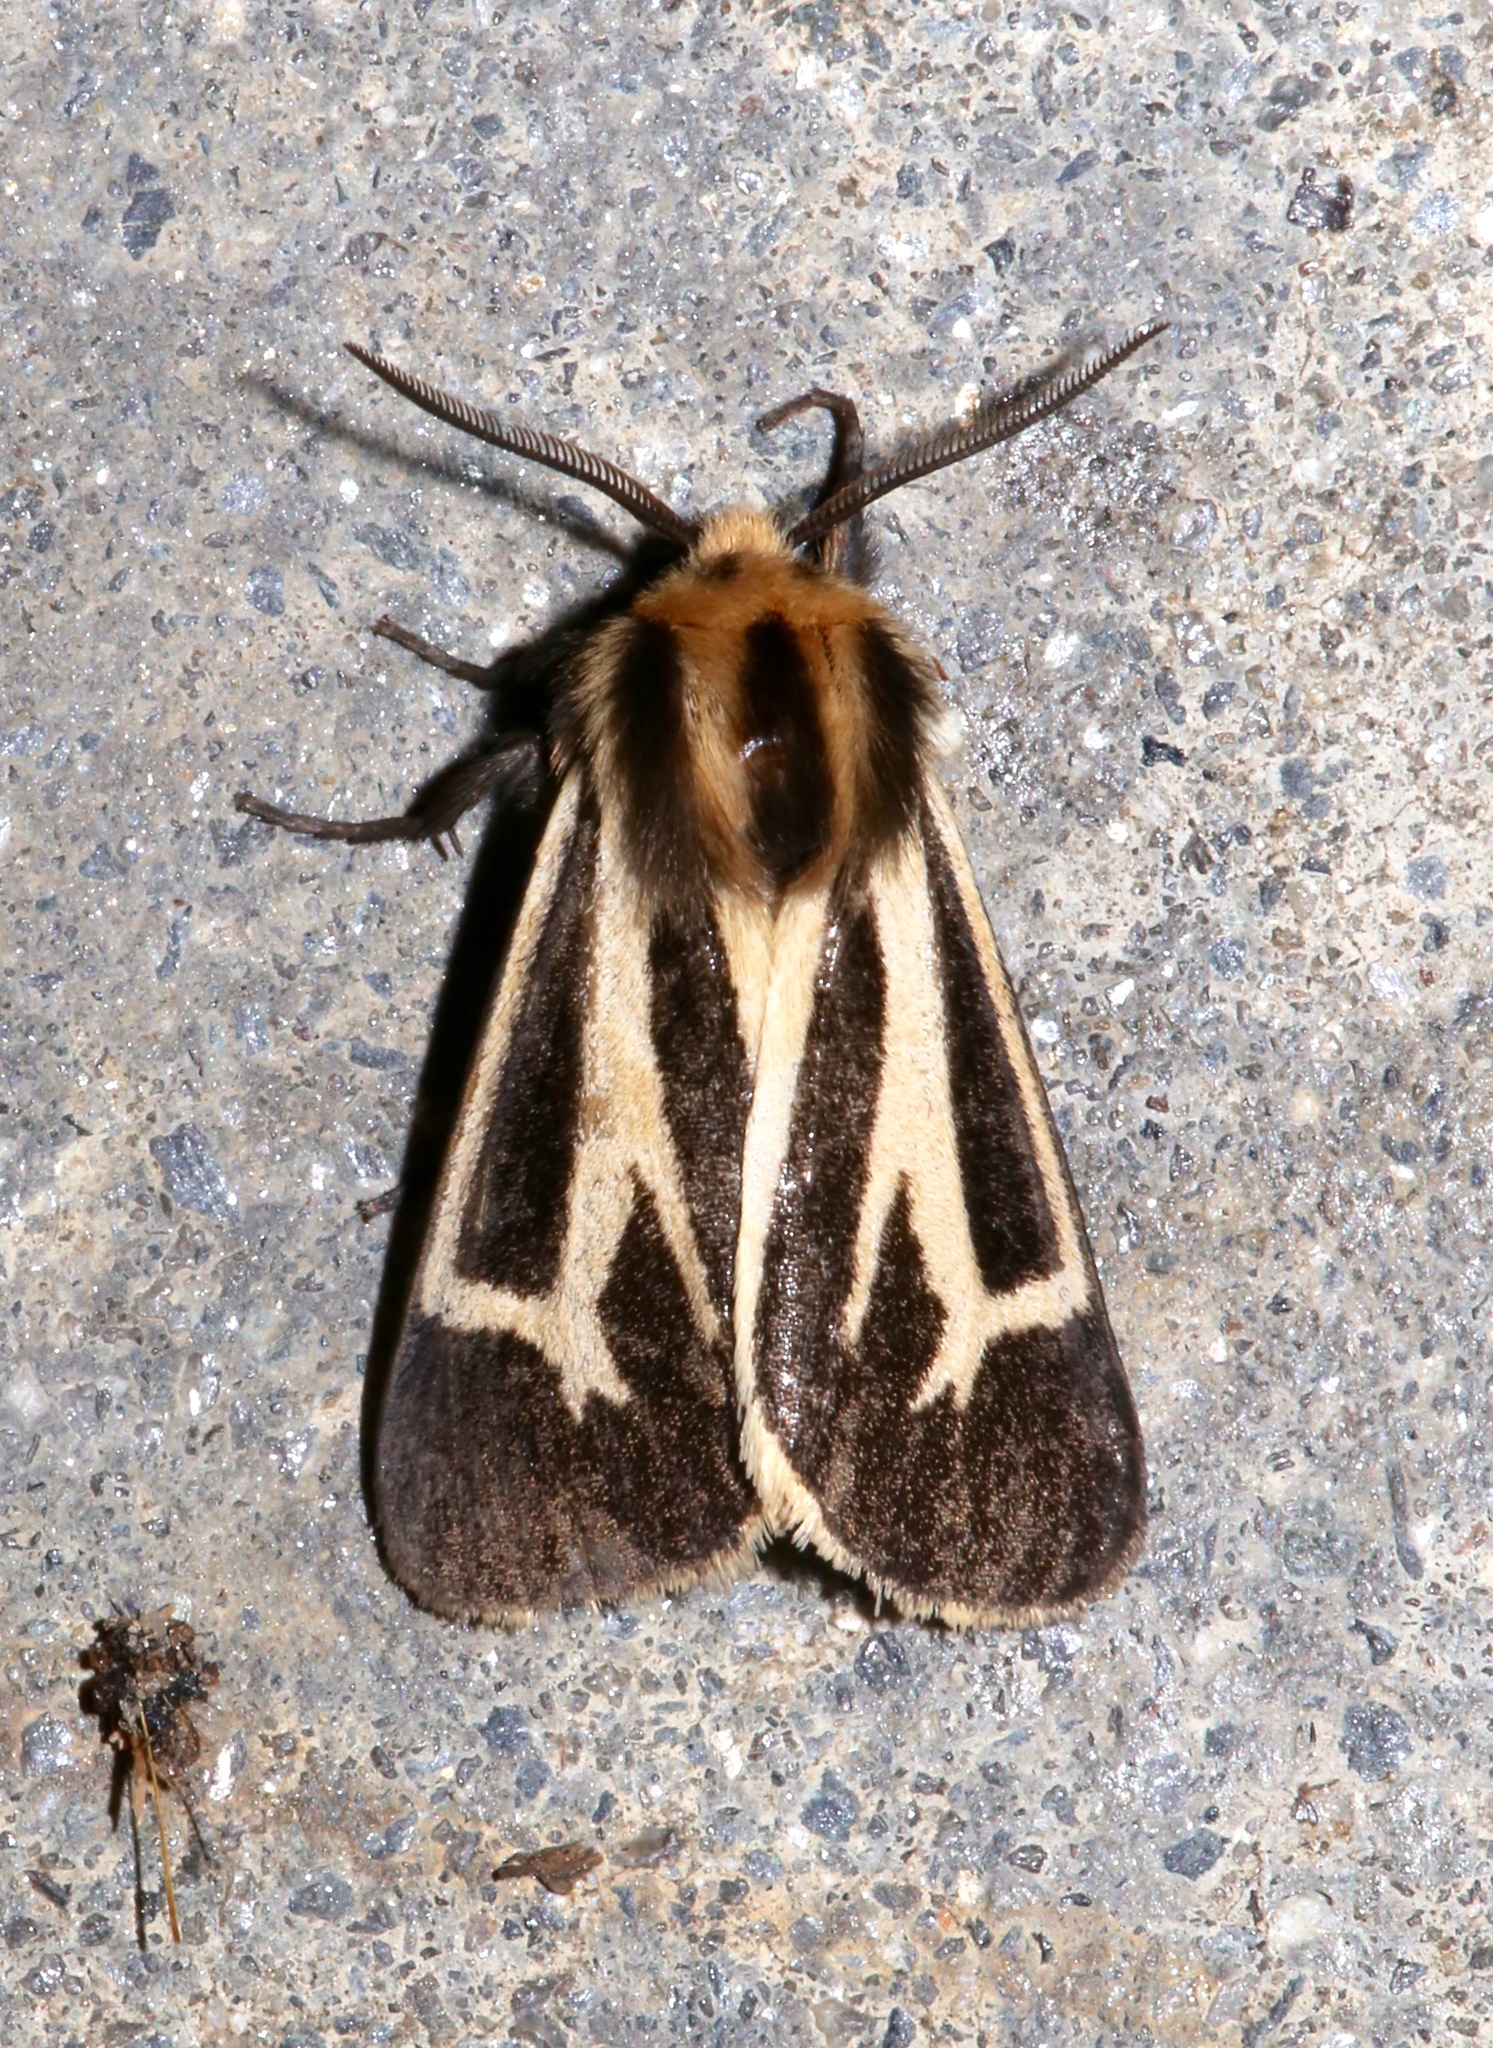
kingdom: Animalia
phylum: Arthropoda
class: Insecta
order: Lepidoptera
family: Erebidae
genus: Apantesis
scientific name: Apantesis carlotta
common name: Carlotta's tiger moth
